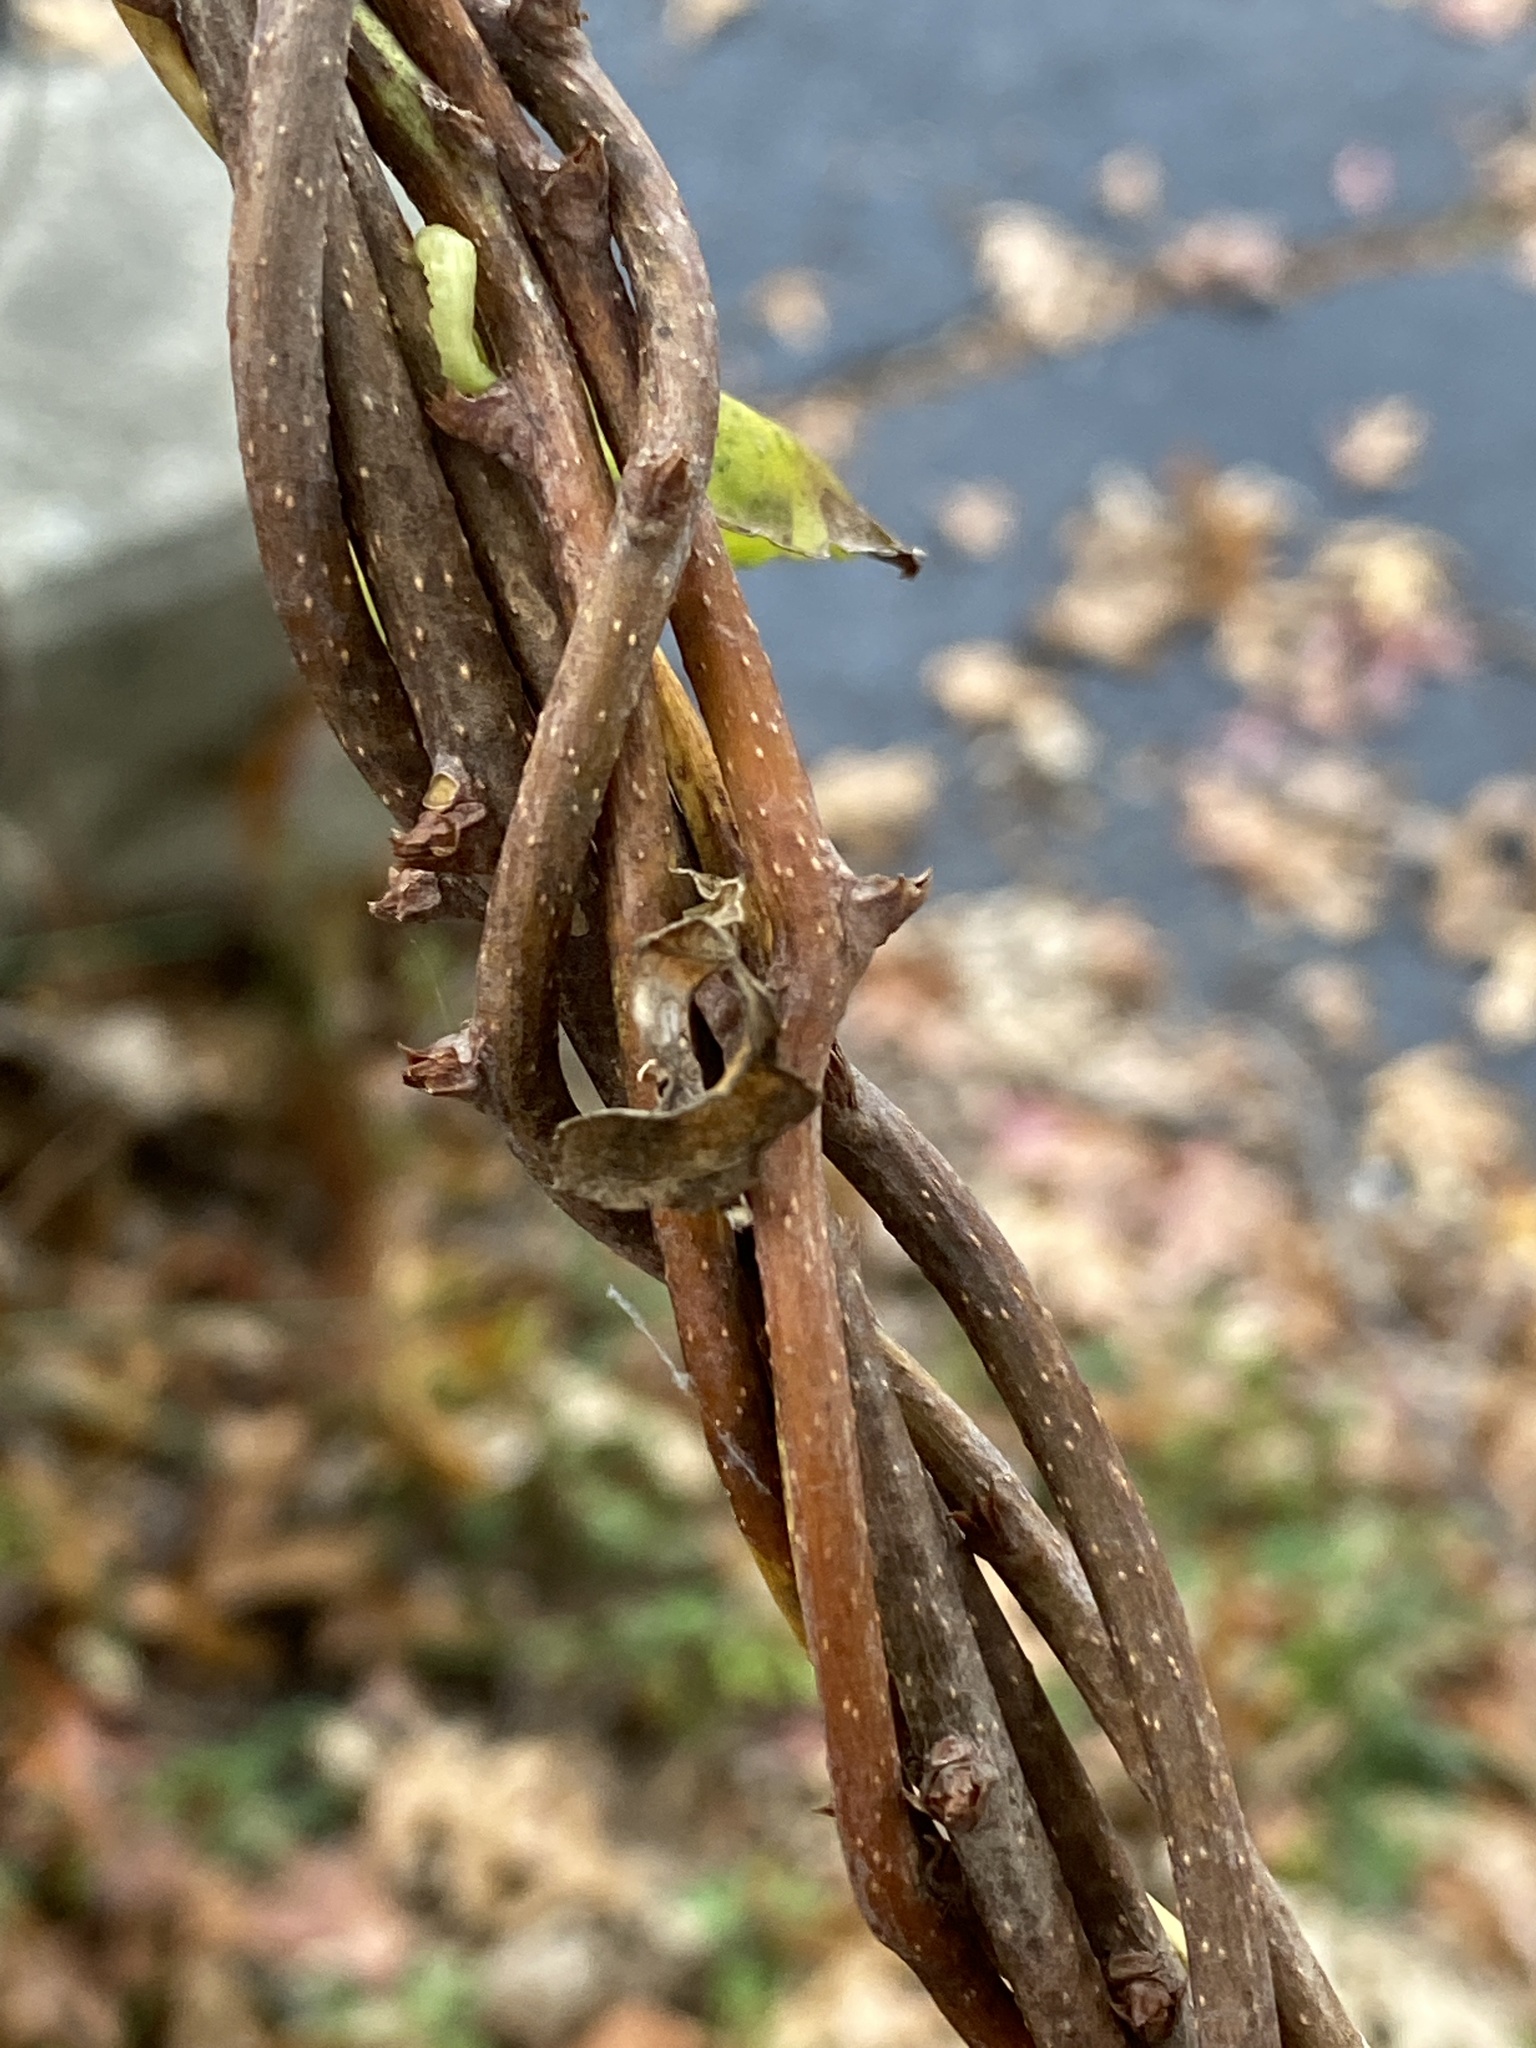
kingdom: Plantae
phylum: Tracheophyta
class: Magnoliopsida
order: Celastrales
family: Celastraceae
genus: Celastrus
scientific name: Celastrus orbiculatus
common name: Oriental bittersweet
